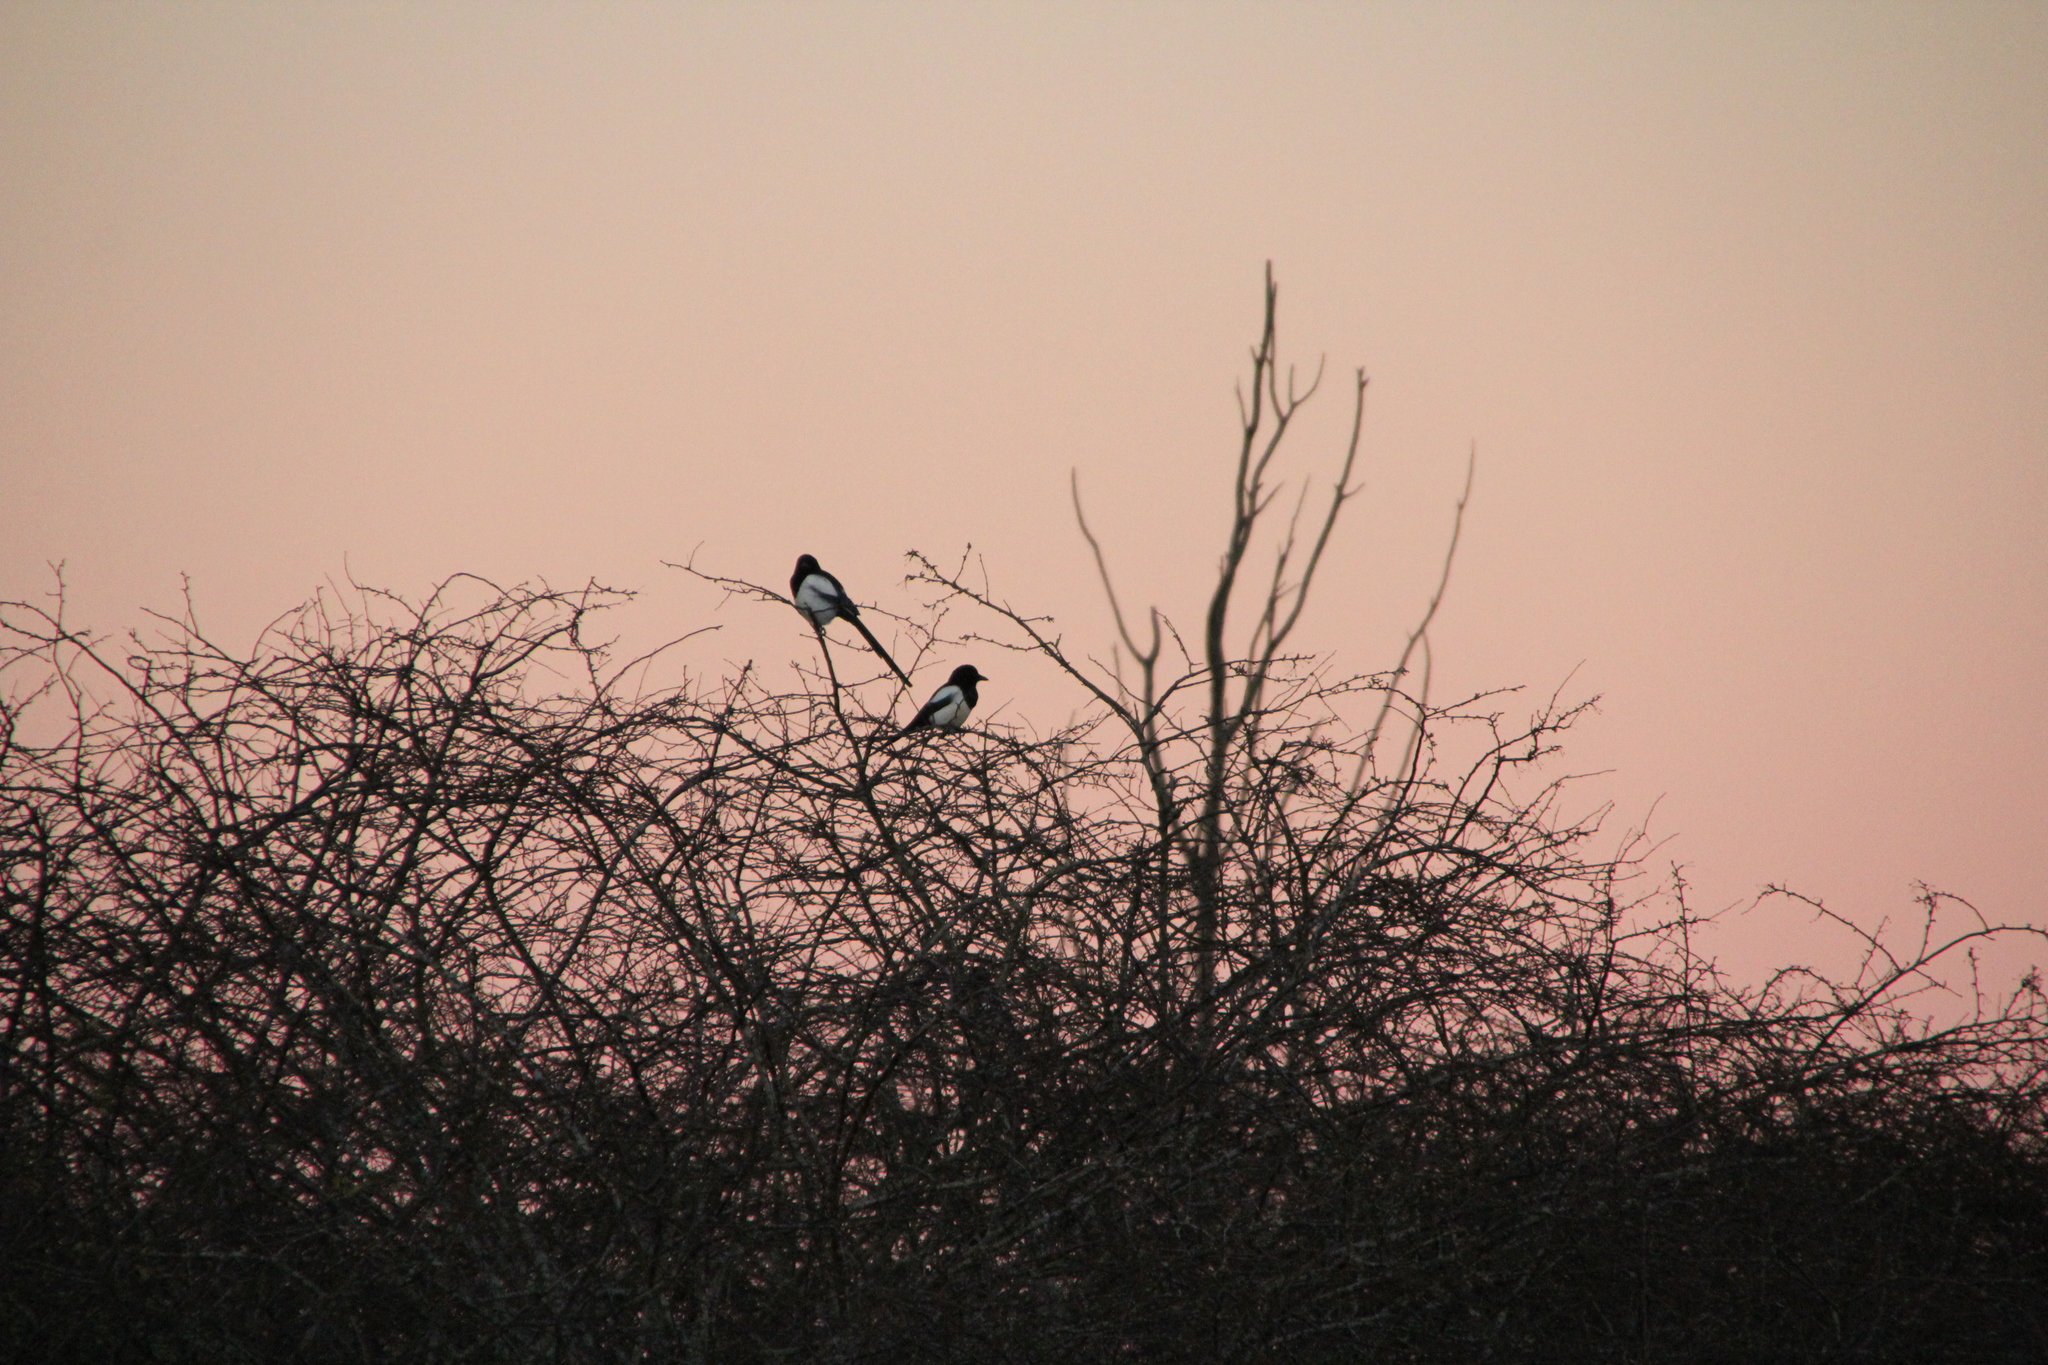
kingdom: Animalia
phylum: Chordata
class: Aves
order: Passeriformes
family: Corvidae
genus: Pica
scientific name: Pica pica
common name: Eurasian magpie
